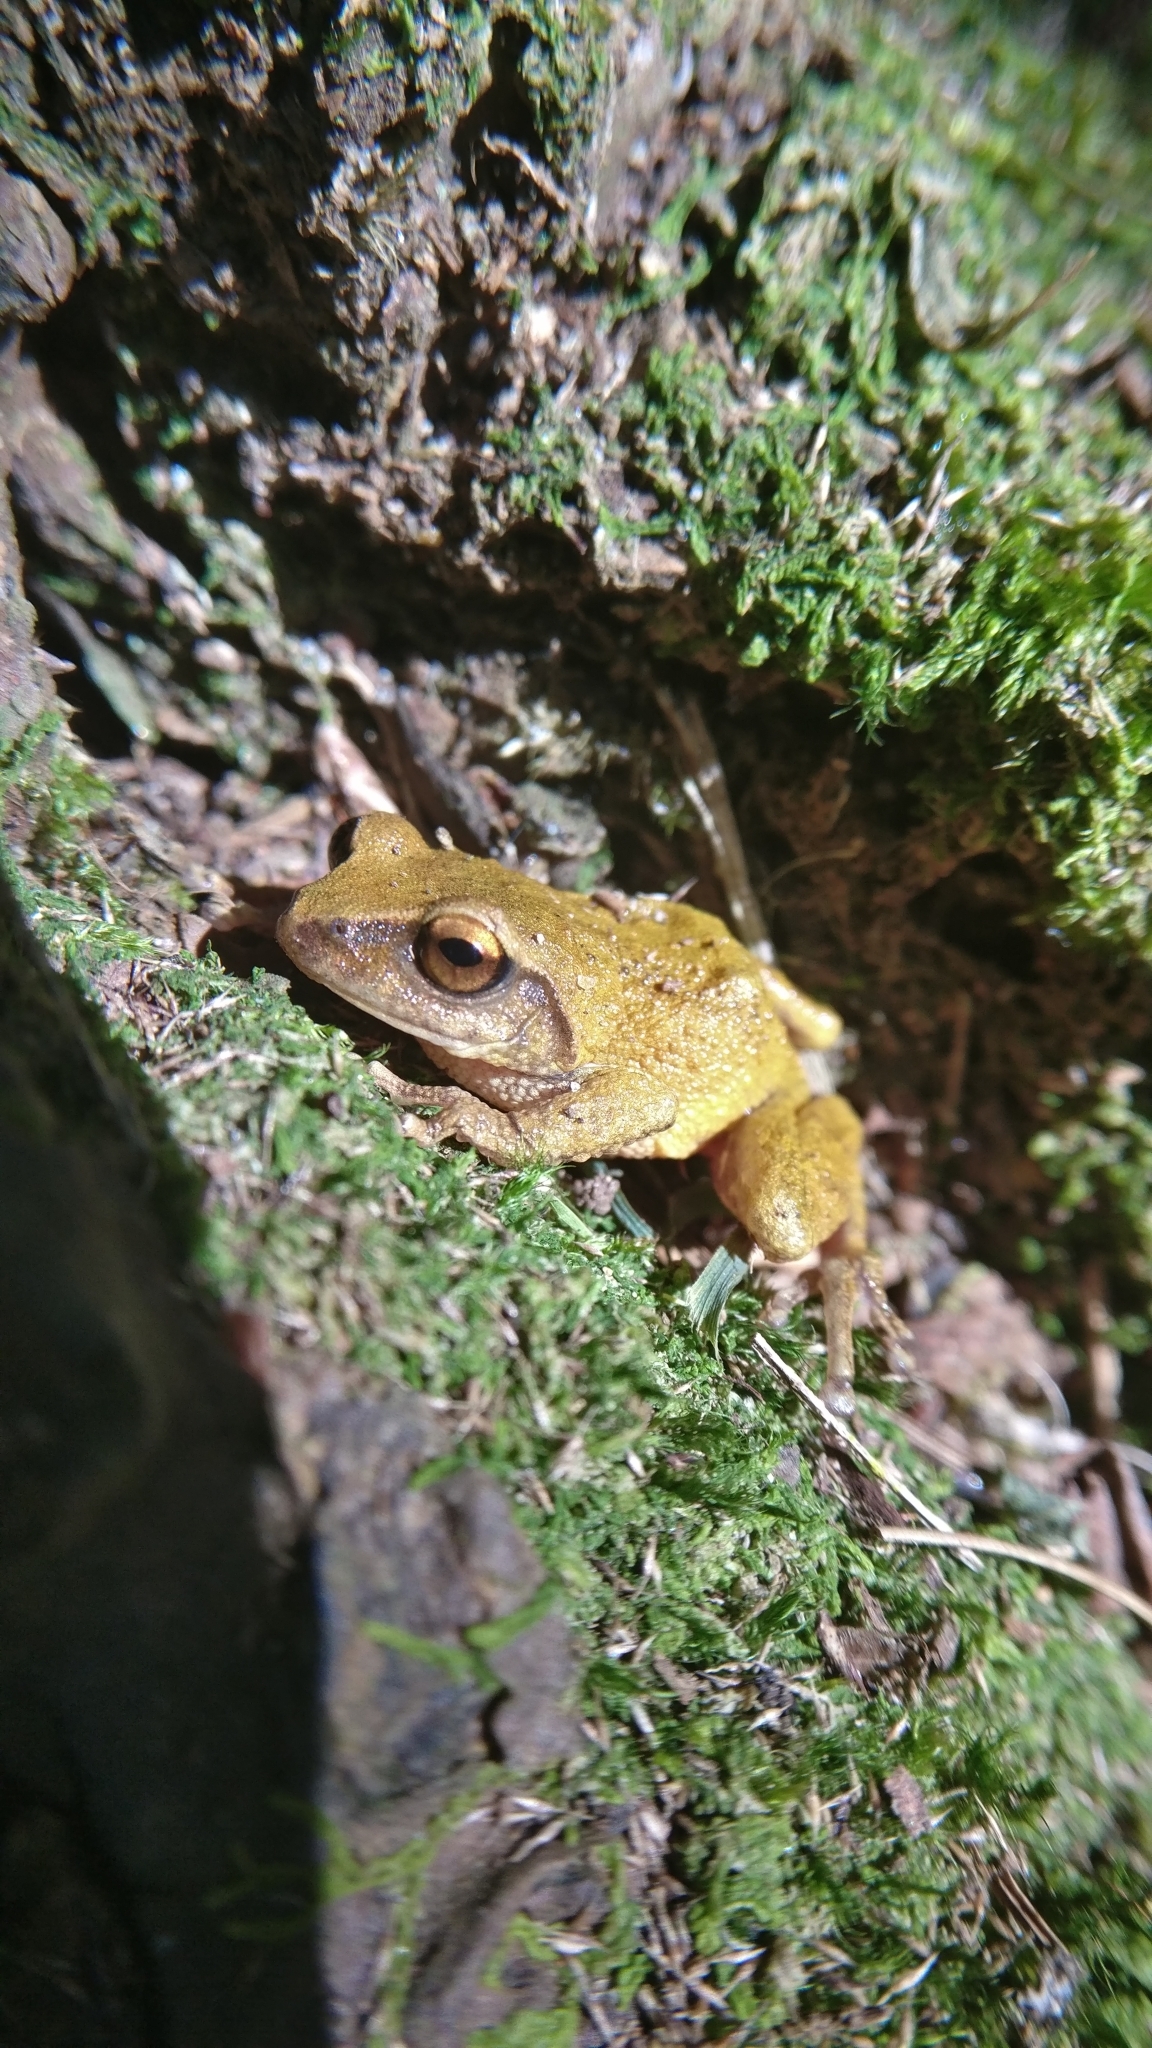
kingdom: Animalia
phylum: Chordata
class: Amphibia
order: Anura
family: Rhacophoridae
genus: Raorchestes
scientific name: Raorchestes dubois
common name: Koadaikanal bush frog
